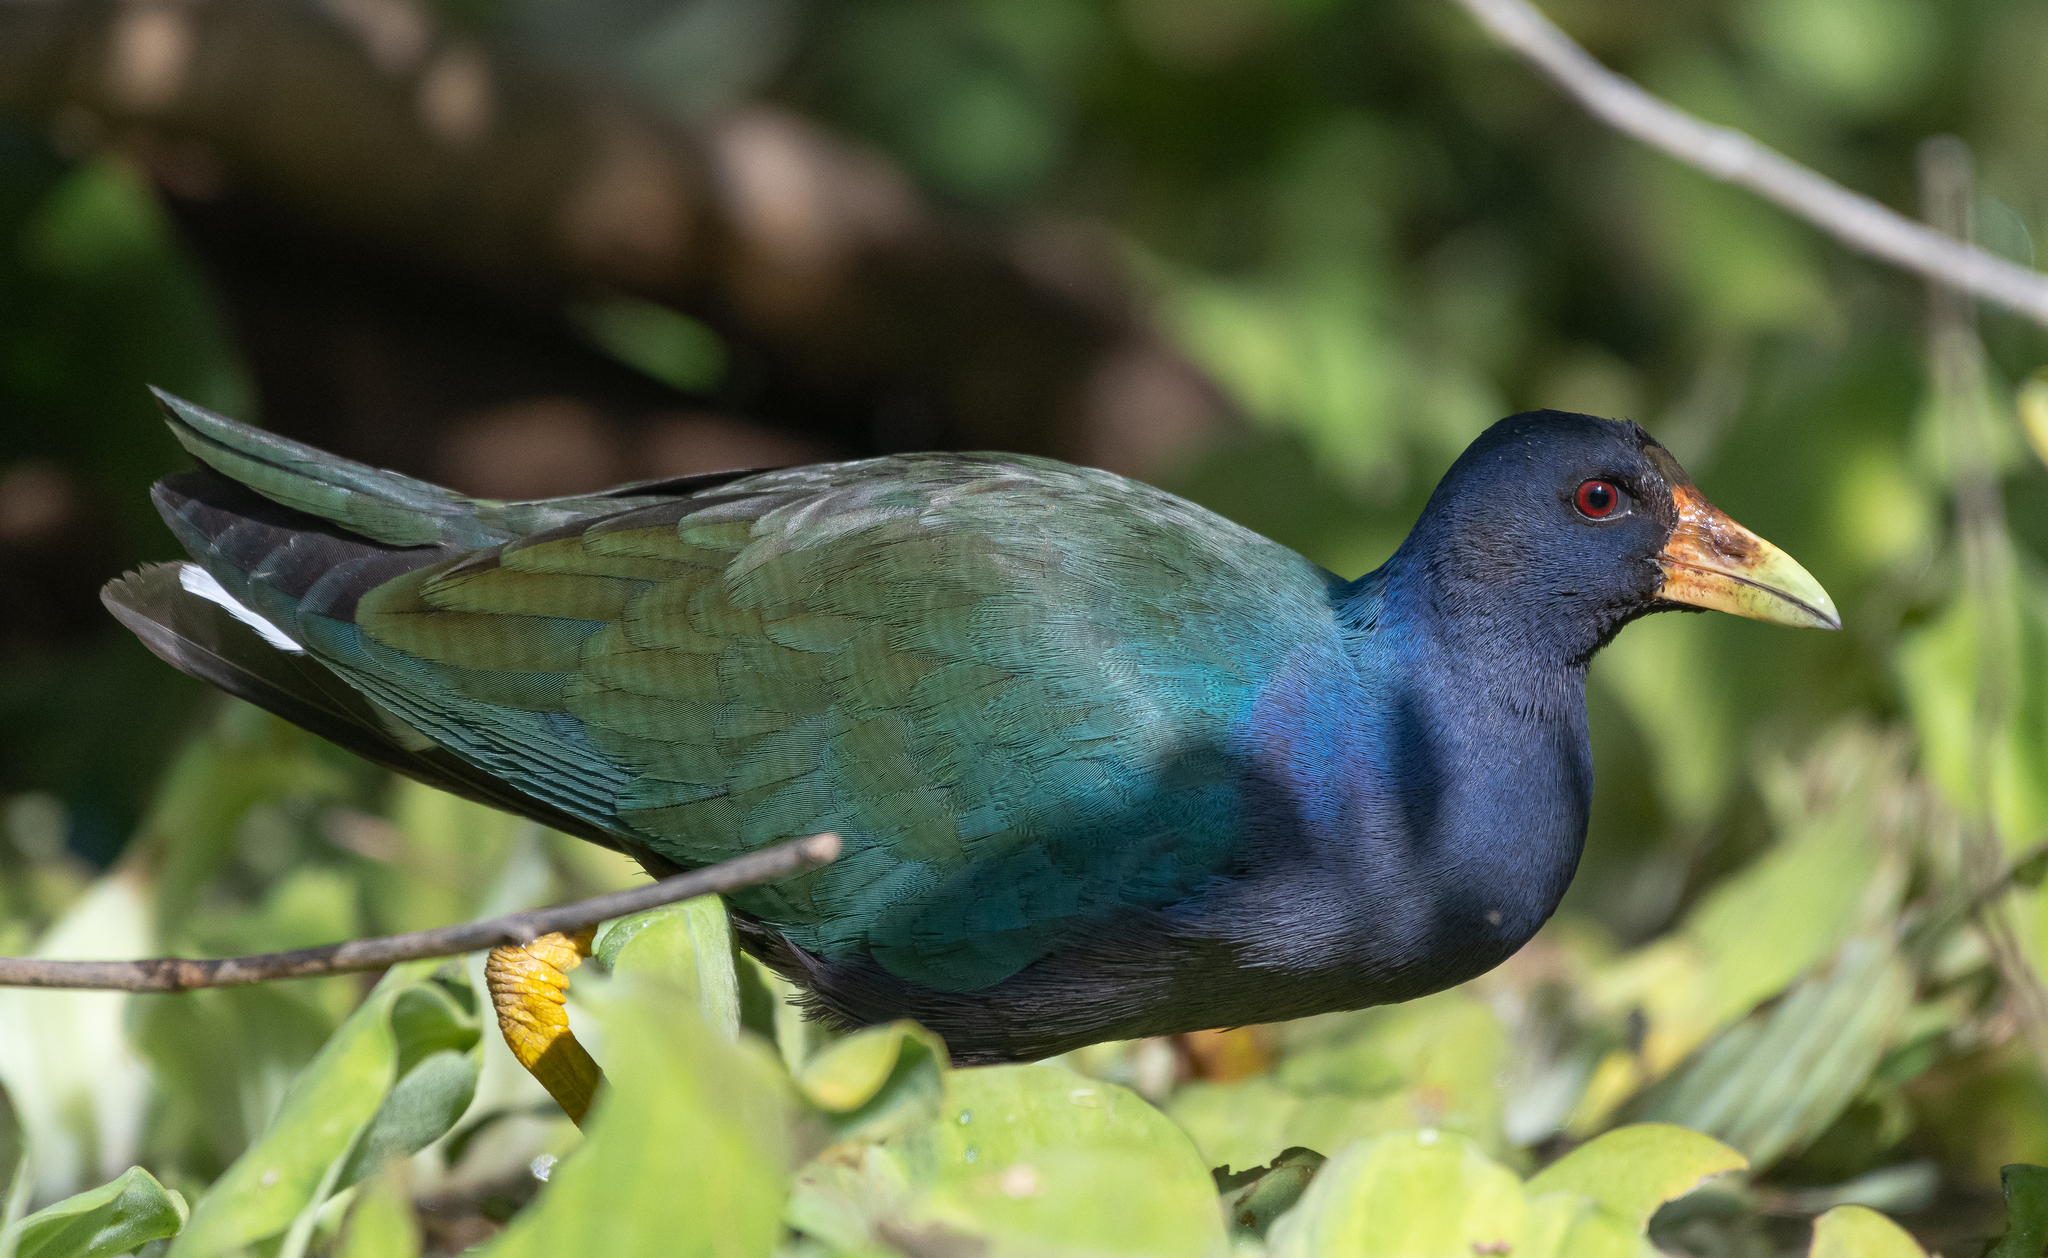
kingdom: Animalia
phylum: Chordata
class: Aves
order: Gruiformes
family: Rallidae
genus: Porphyrio
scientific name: Porphyrio martinica
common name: Purple gallinule
